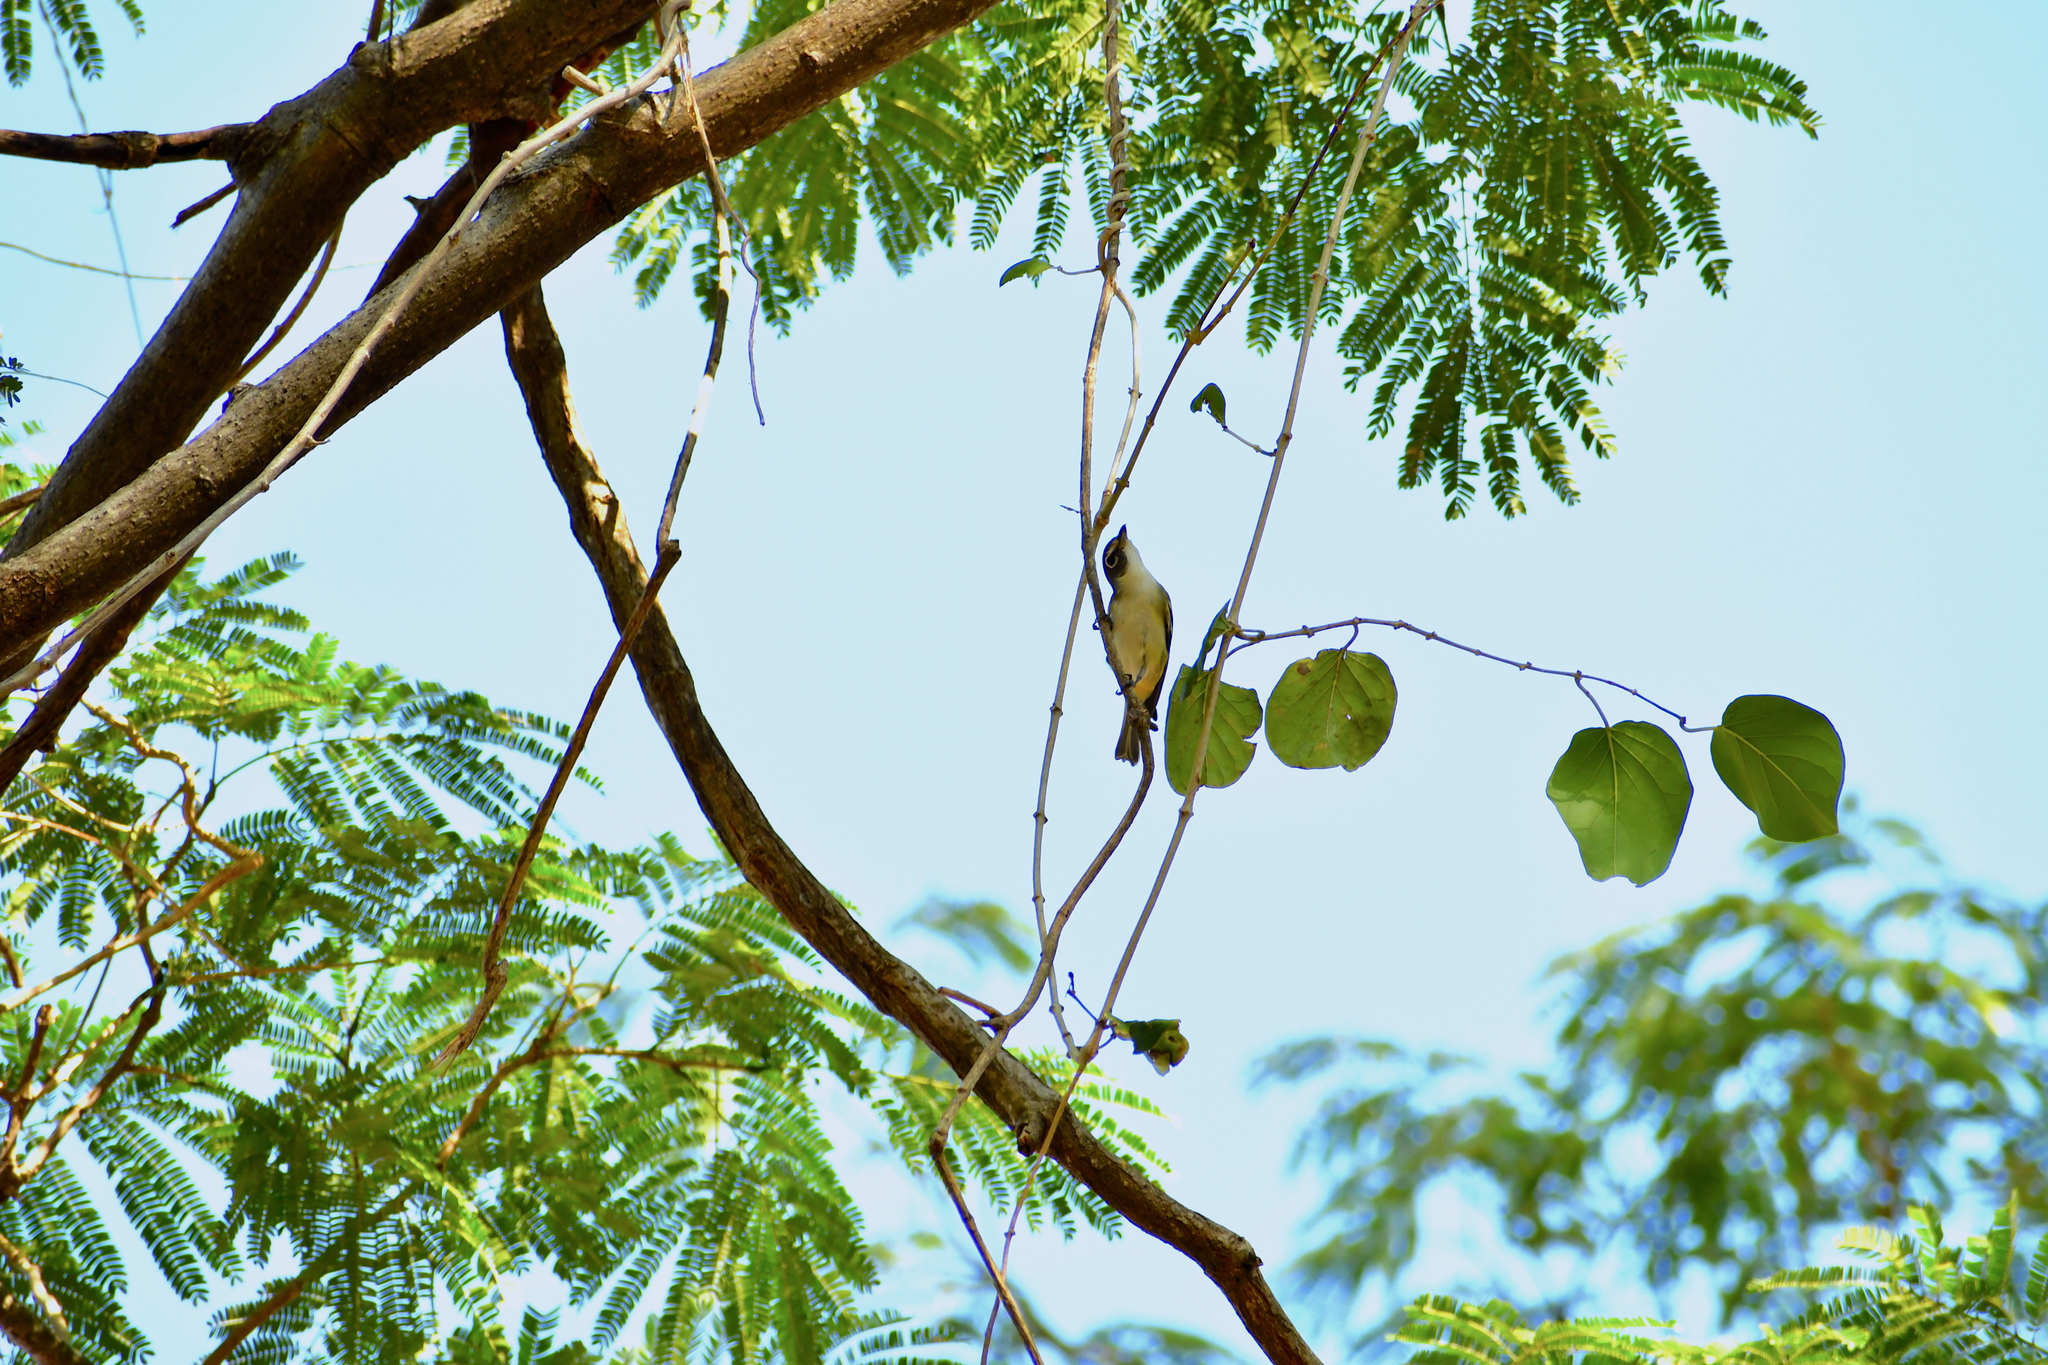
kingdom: Animalia
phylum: Chordata
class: Aves
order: Passeriformes
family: Vireonidae
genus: Vireo
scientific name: Vireo solitarius
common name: Blue-headed vireo
